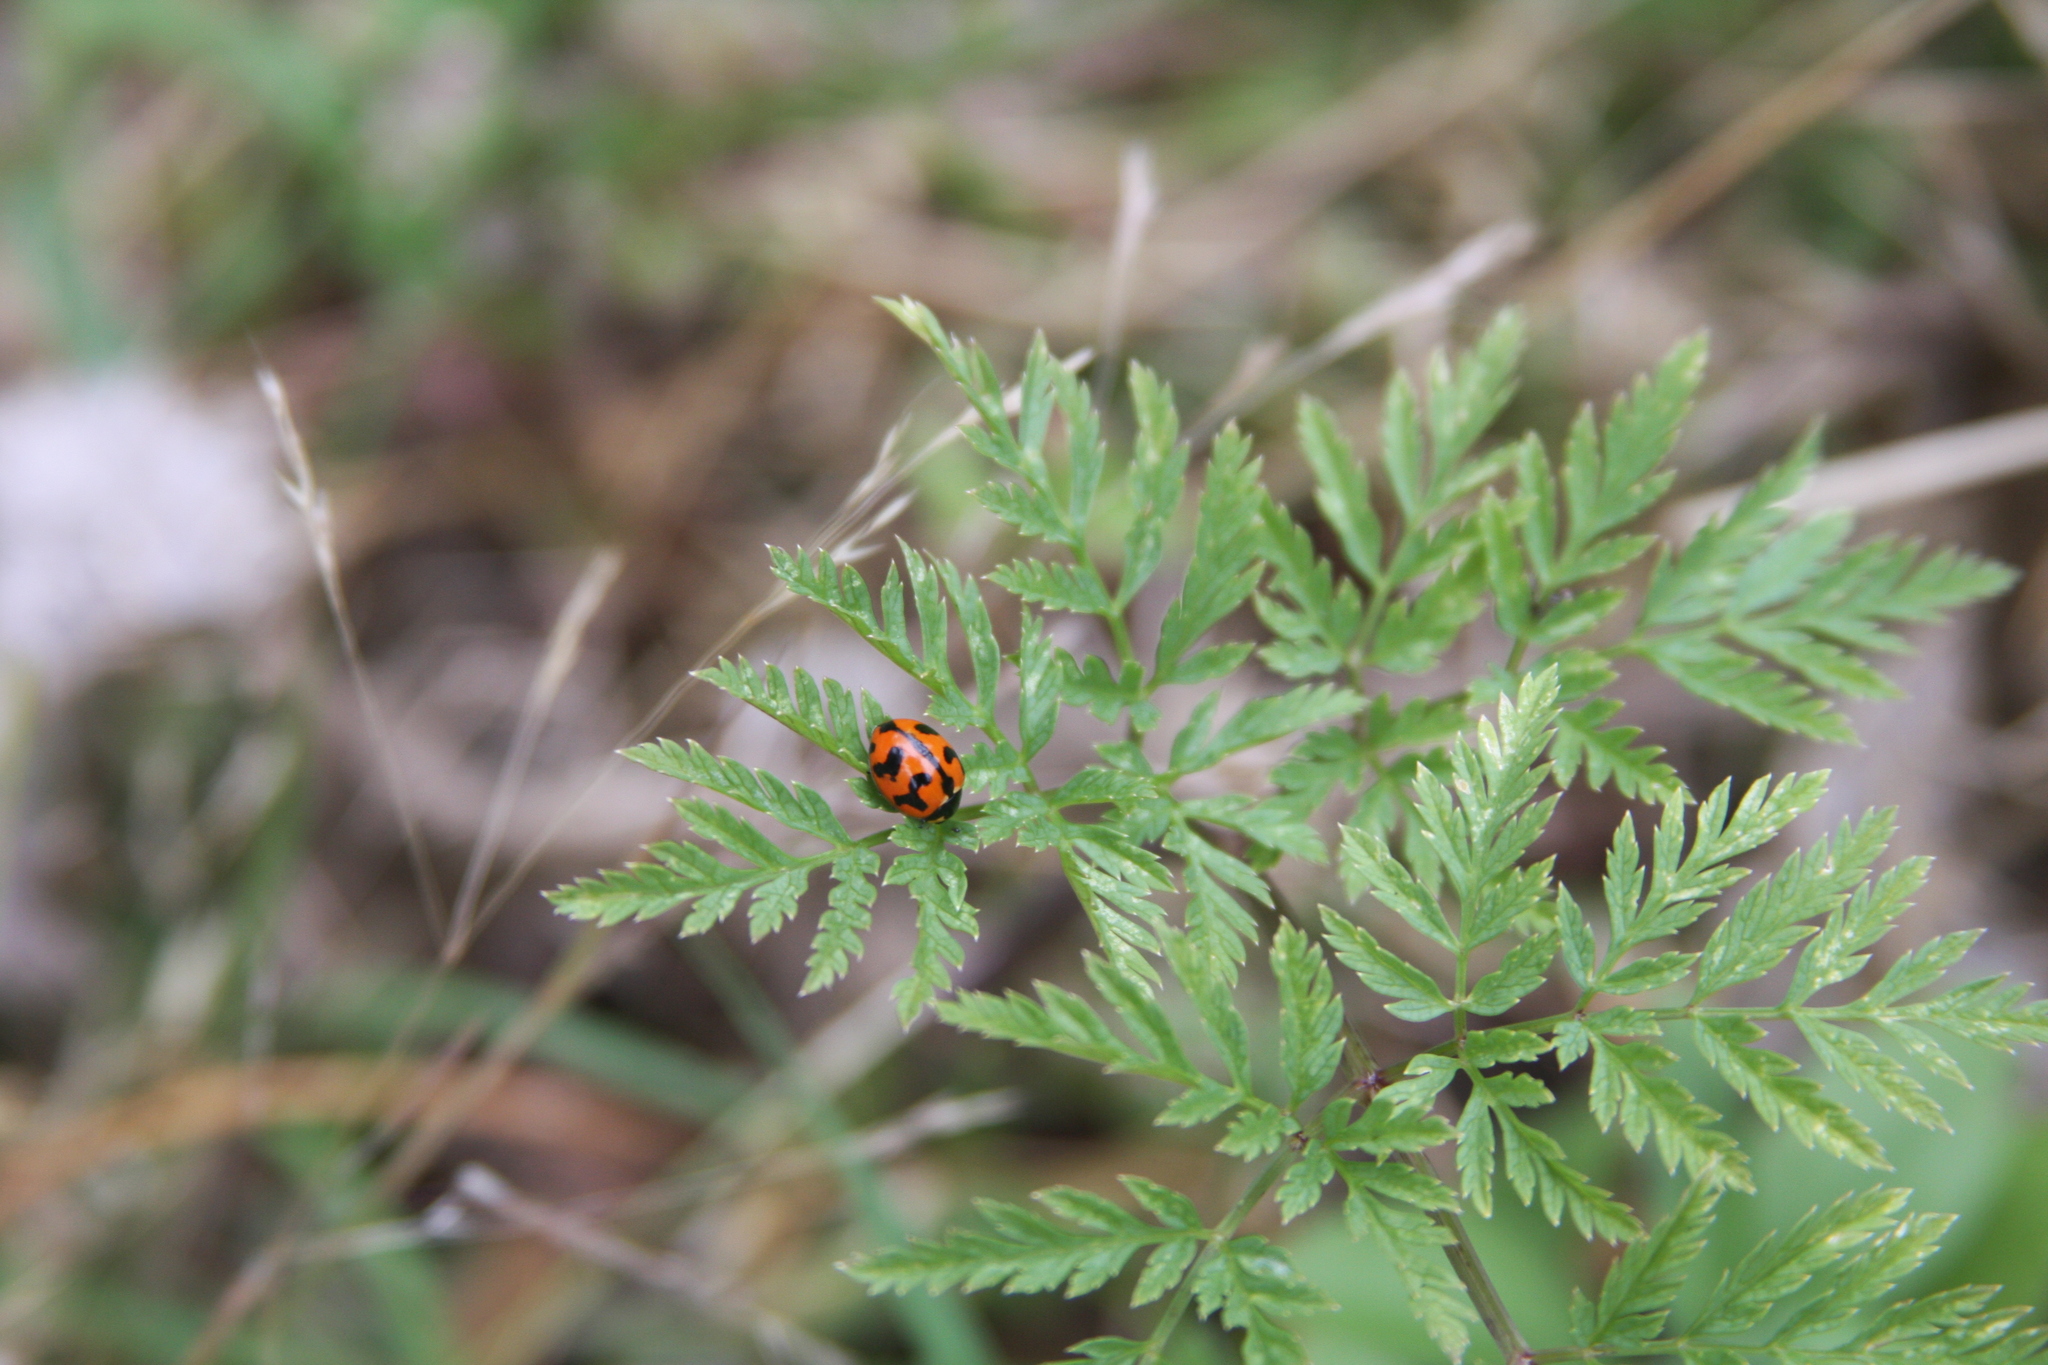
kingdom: Animalia
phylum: Arthropoda
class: Insecta
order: Coleoptera
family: Coccinellidae
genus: Coccinella
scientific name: Coccinella transversalis
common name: Transverse lady beetle
